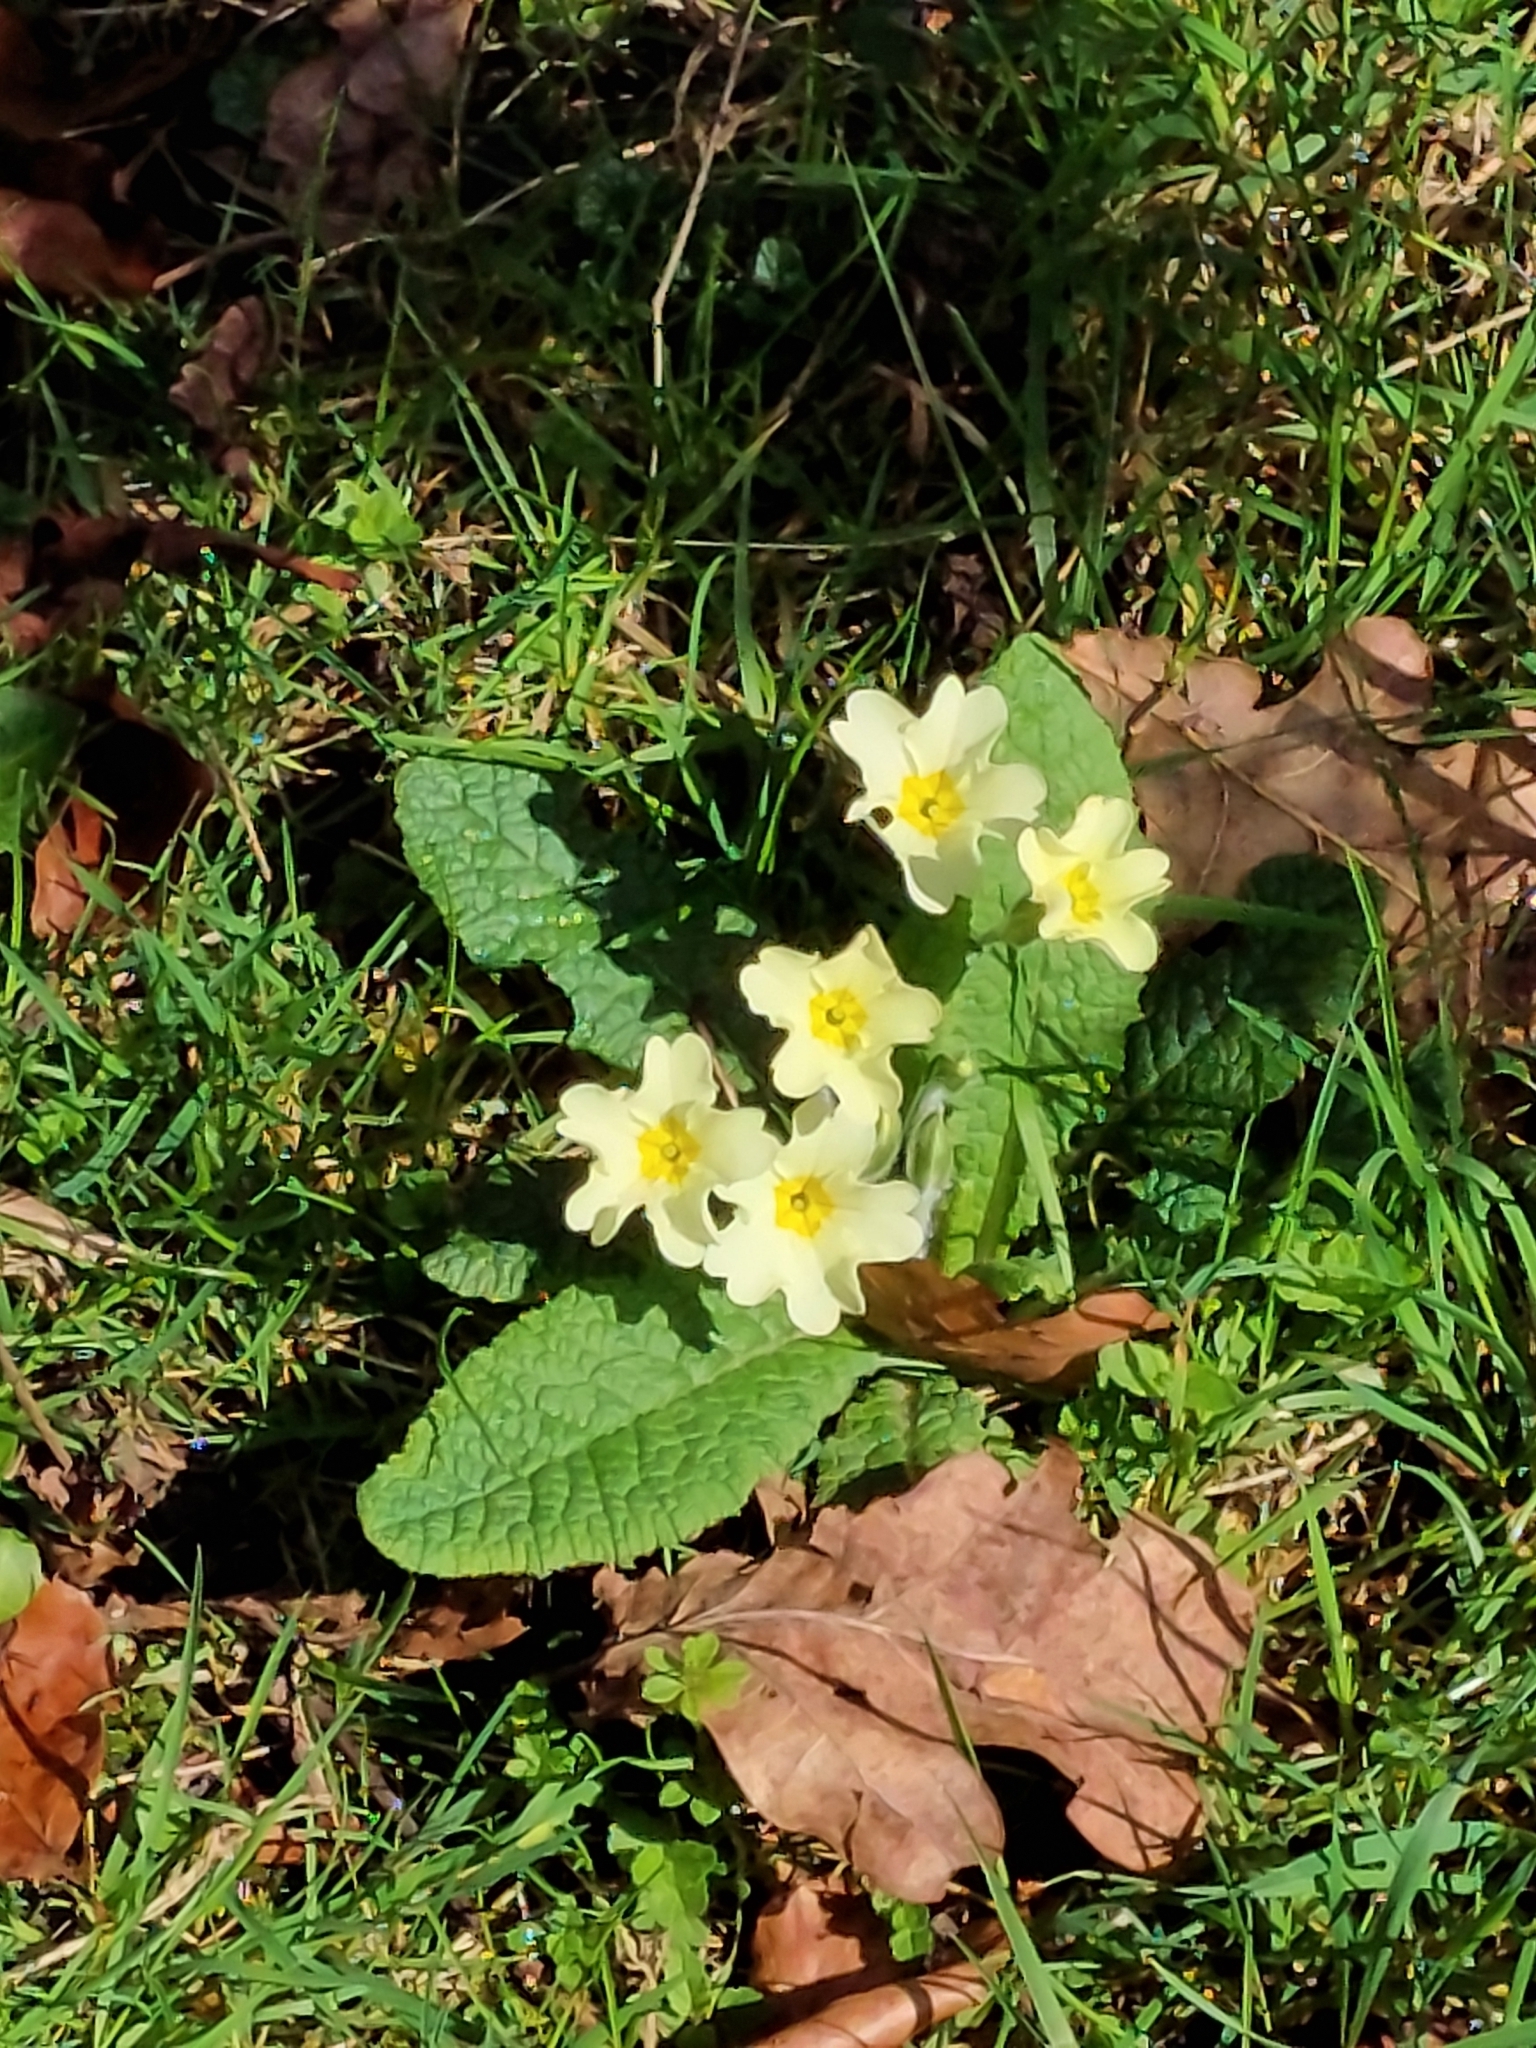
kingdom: Plantae
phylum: Tracheophyta
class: Magnoliopsida
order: Ericales
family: Primulaceae
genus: Primula
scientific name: Primula vulgaris
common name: Primrose
